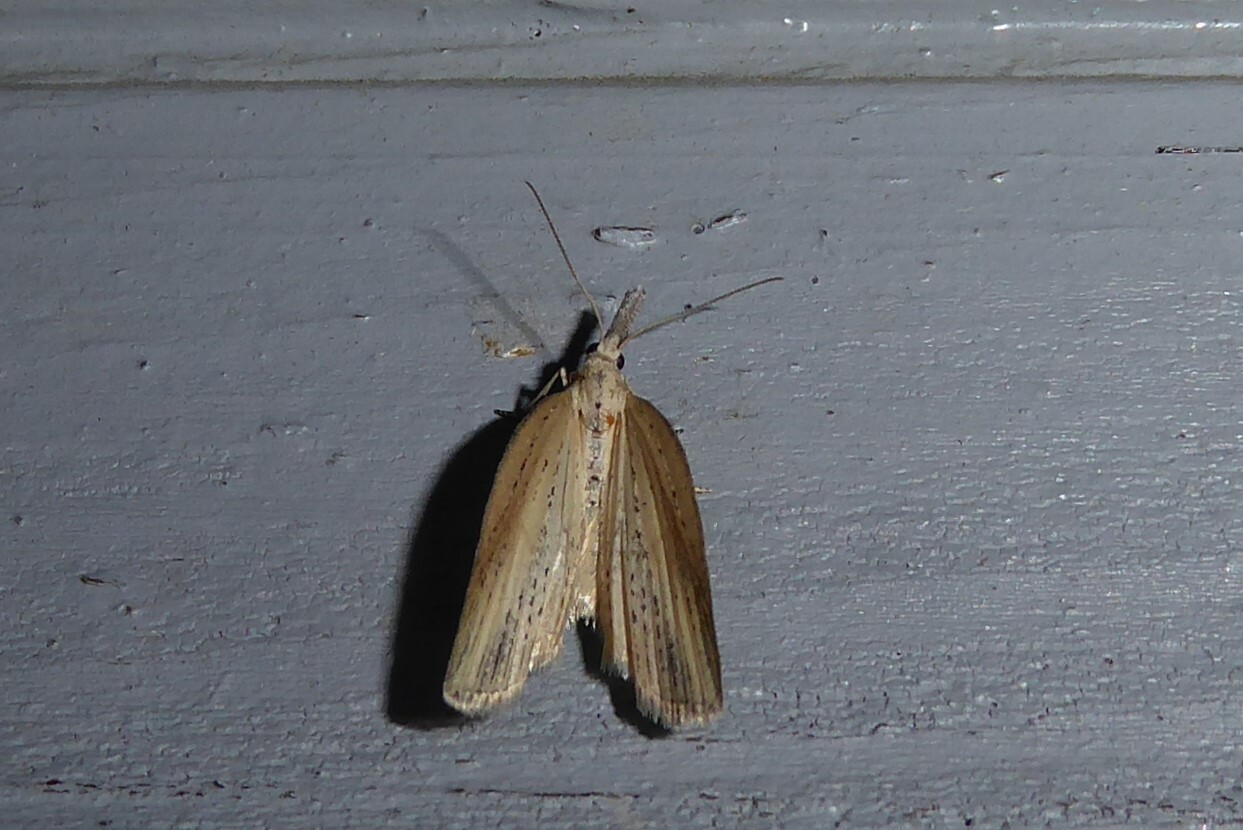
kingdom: Animalia
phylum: Arthropoda
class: Insecta
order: Lepidoptera
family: Geometridae
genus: Microdes
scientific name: Microdes epicryptis
